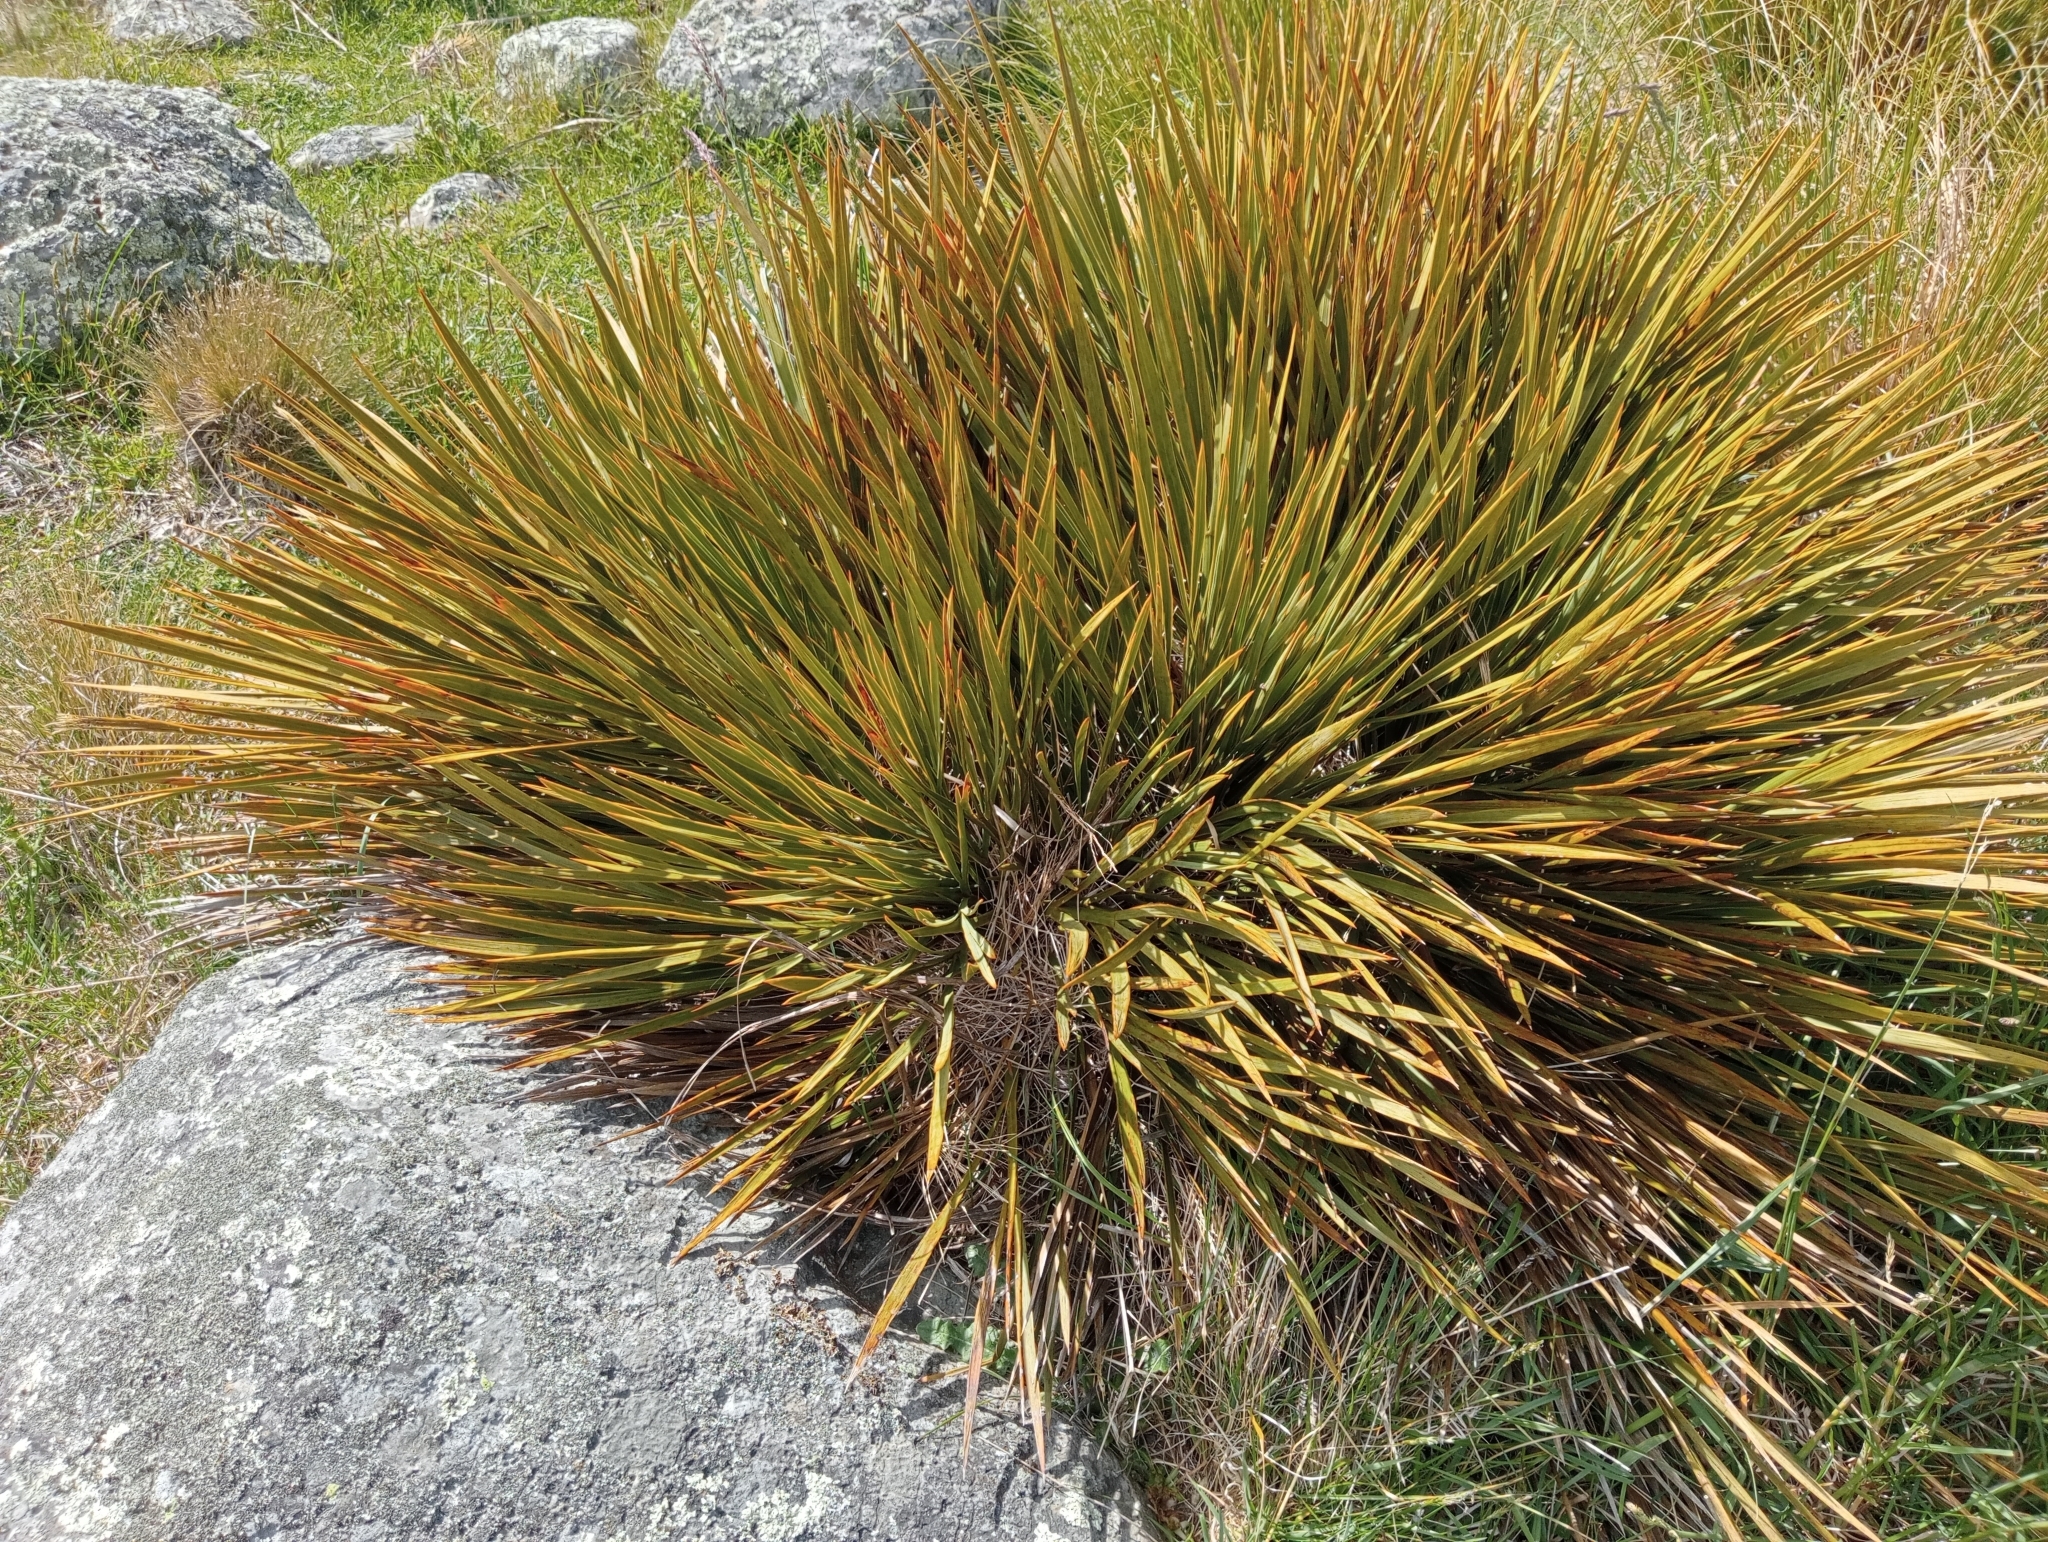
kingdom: Plantae
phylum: Tracheophyta
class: Magnoliopsida
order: Apiales
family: Apiaceae
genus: Aciphylla
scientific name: Aciphylla aurea
